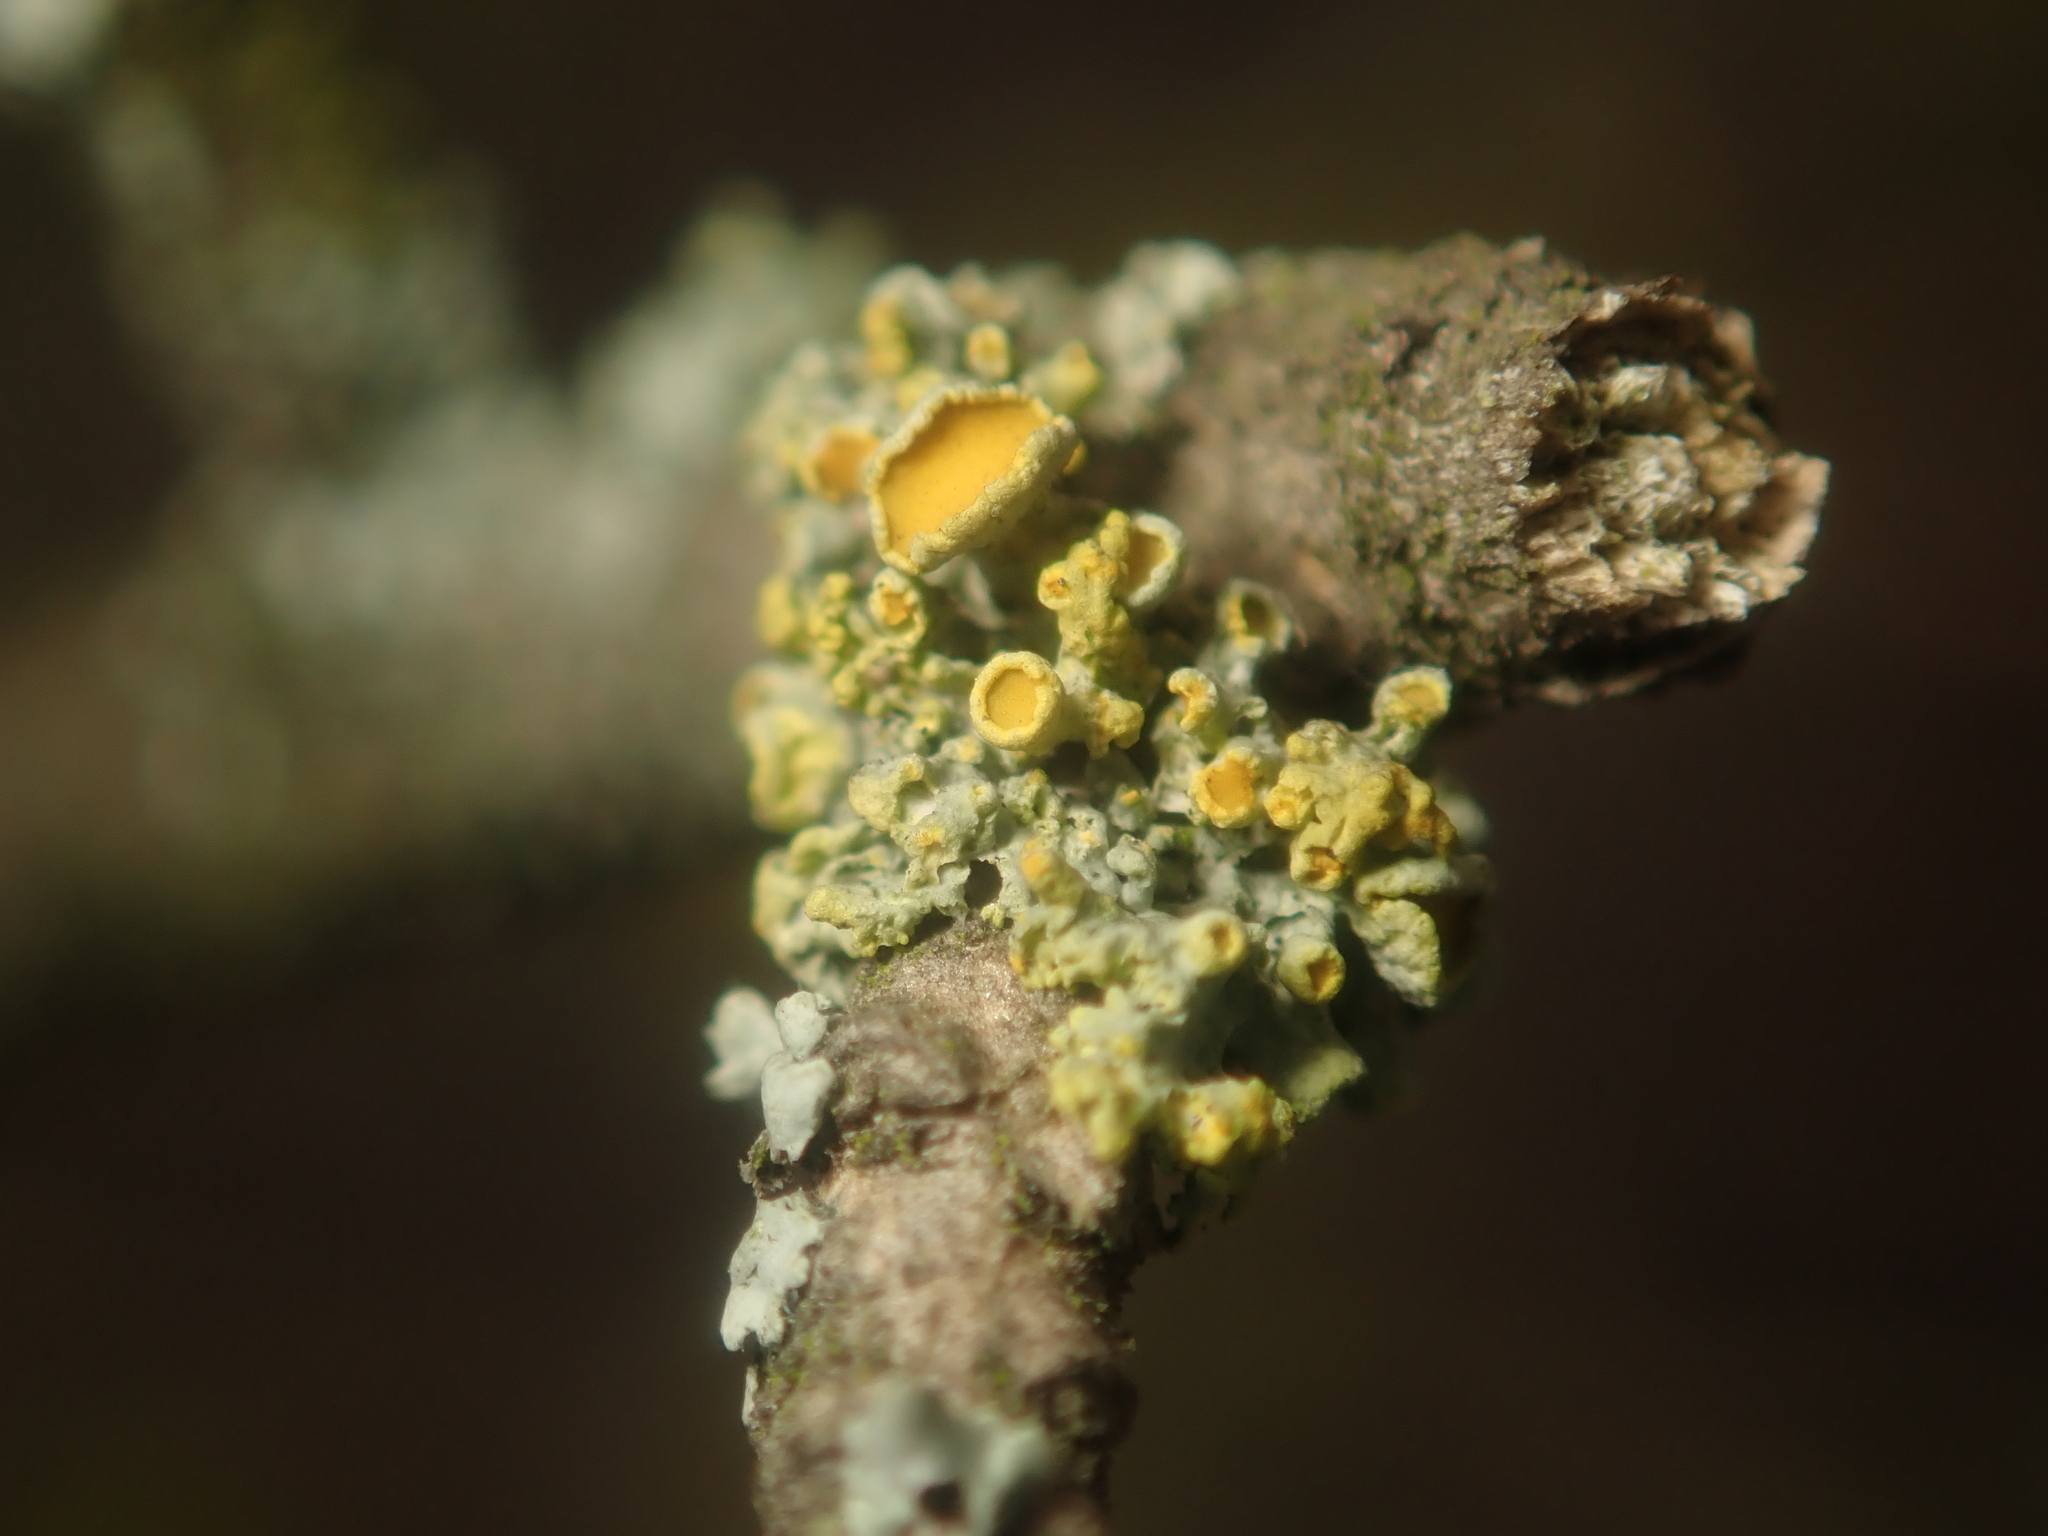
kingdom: Fungi
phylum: Ascomycota
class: Lecanoromycetes
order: Teloschistales
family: Teloschistaceae
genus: Polycauliona
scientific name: Polycauliona polycarpa
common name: Pin-cushion sunburst lichen
